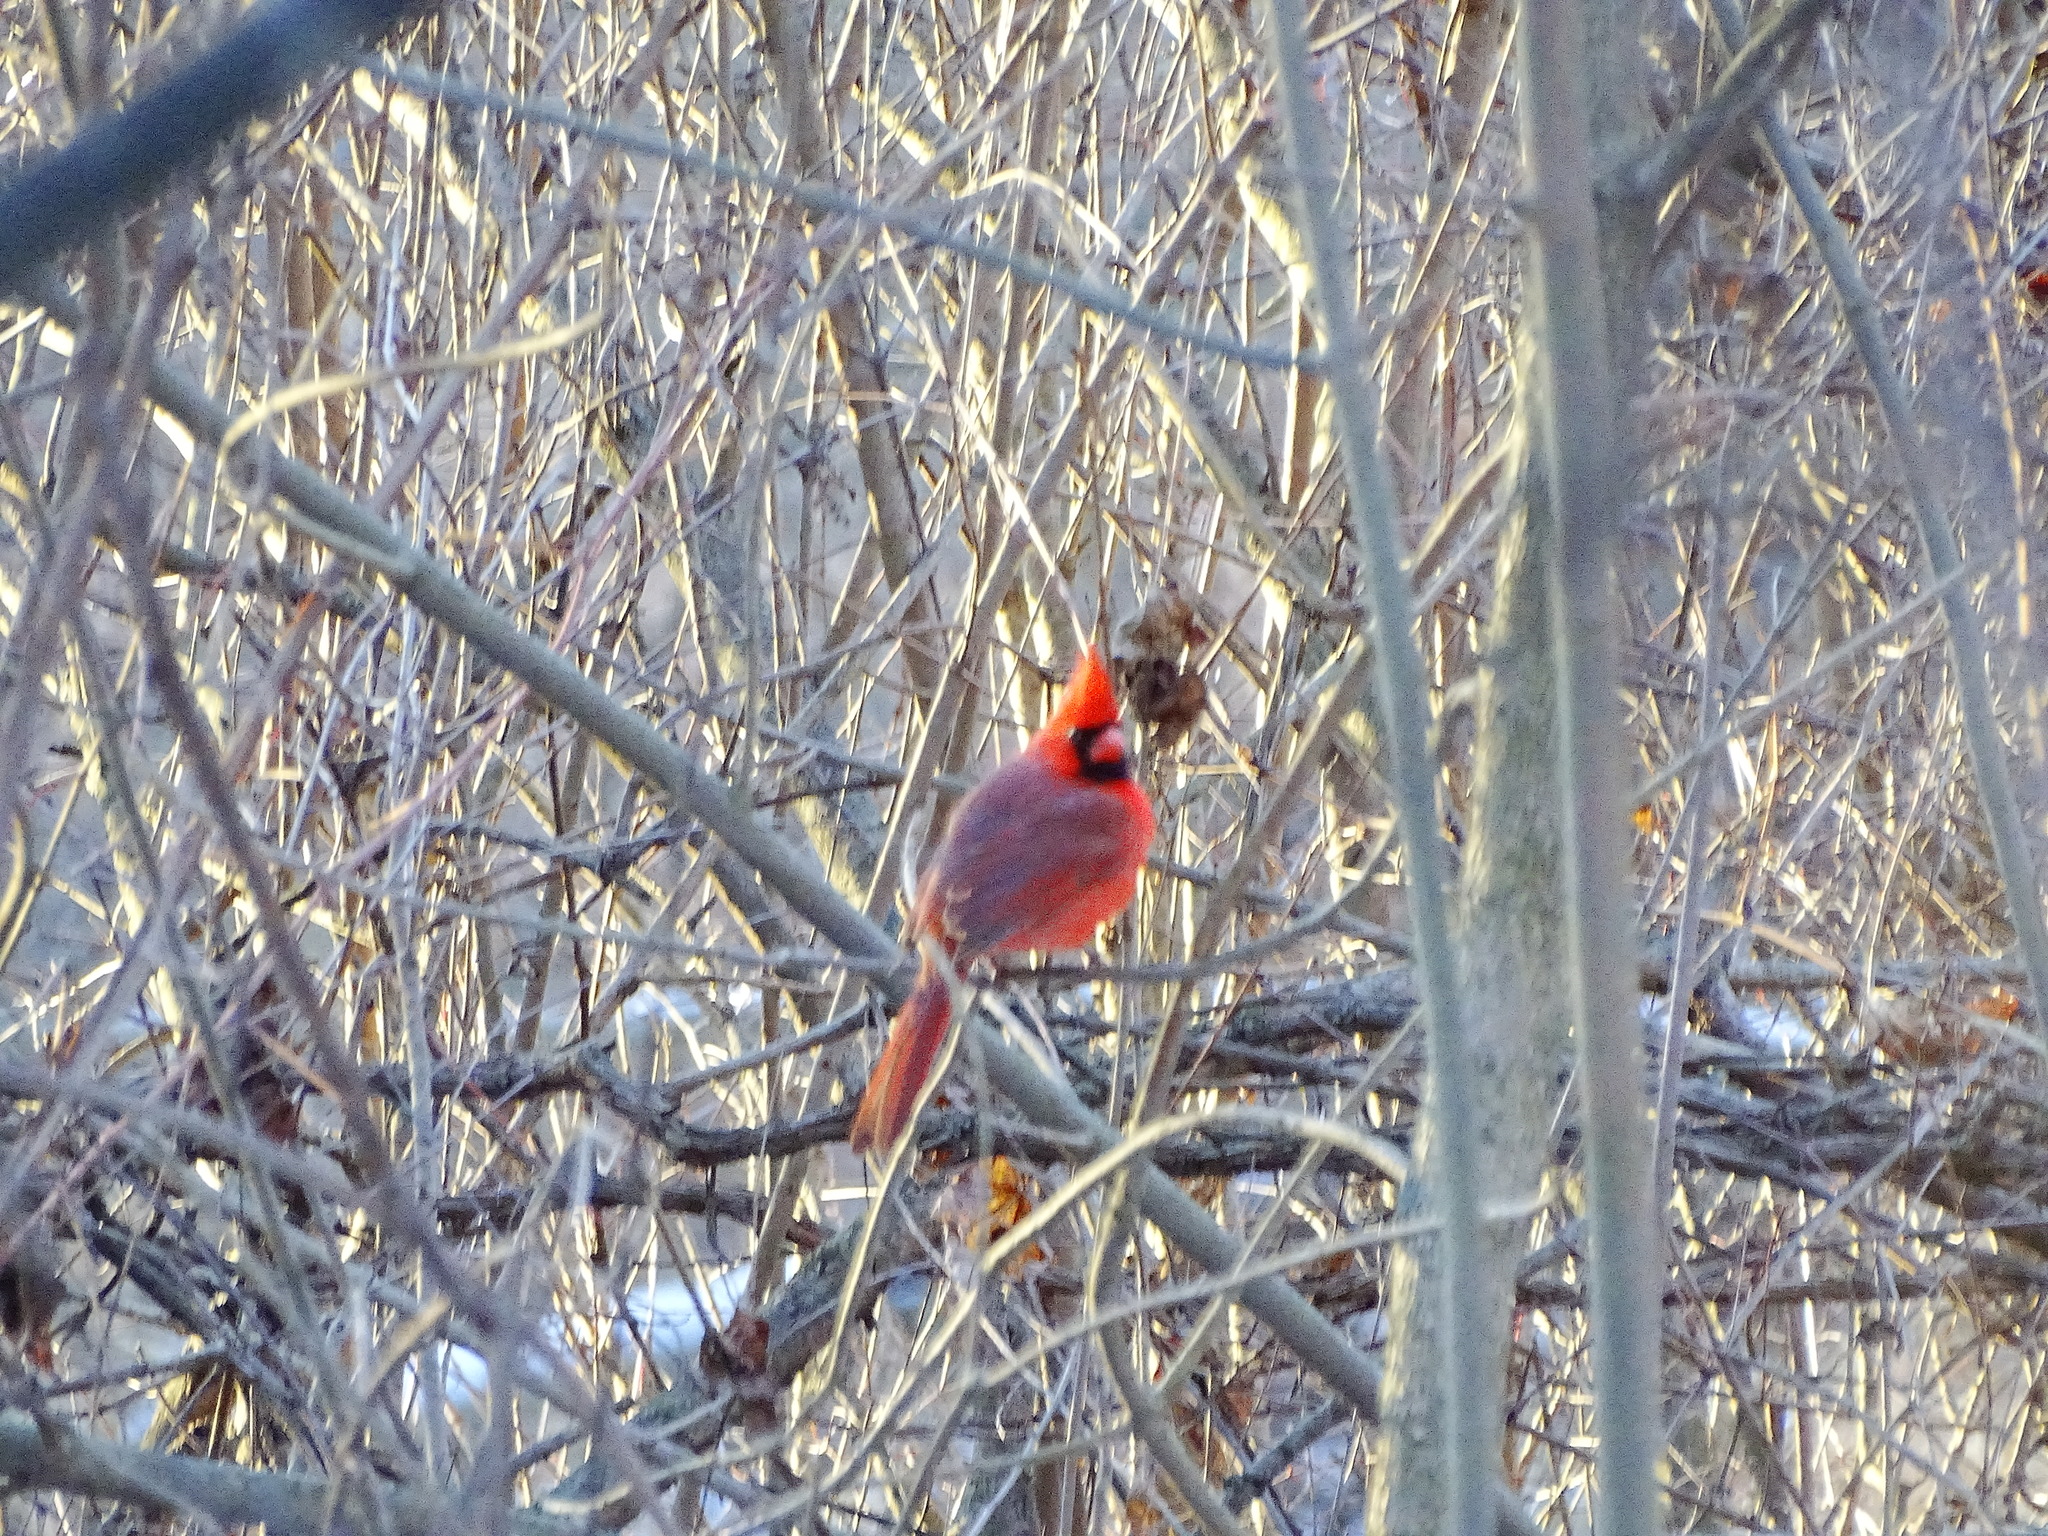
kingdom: Animalia
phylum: Chordata
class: Aves
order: Passeriformes
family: Cardinalidae
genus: Cardinalis
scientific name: Cardinalis cardinalis
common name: Northern cardinal
